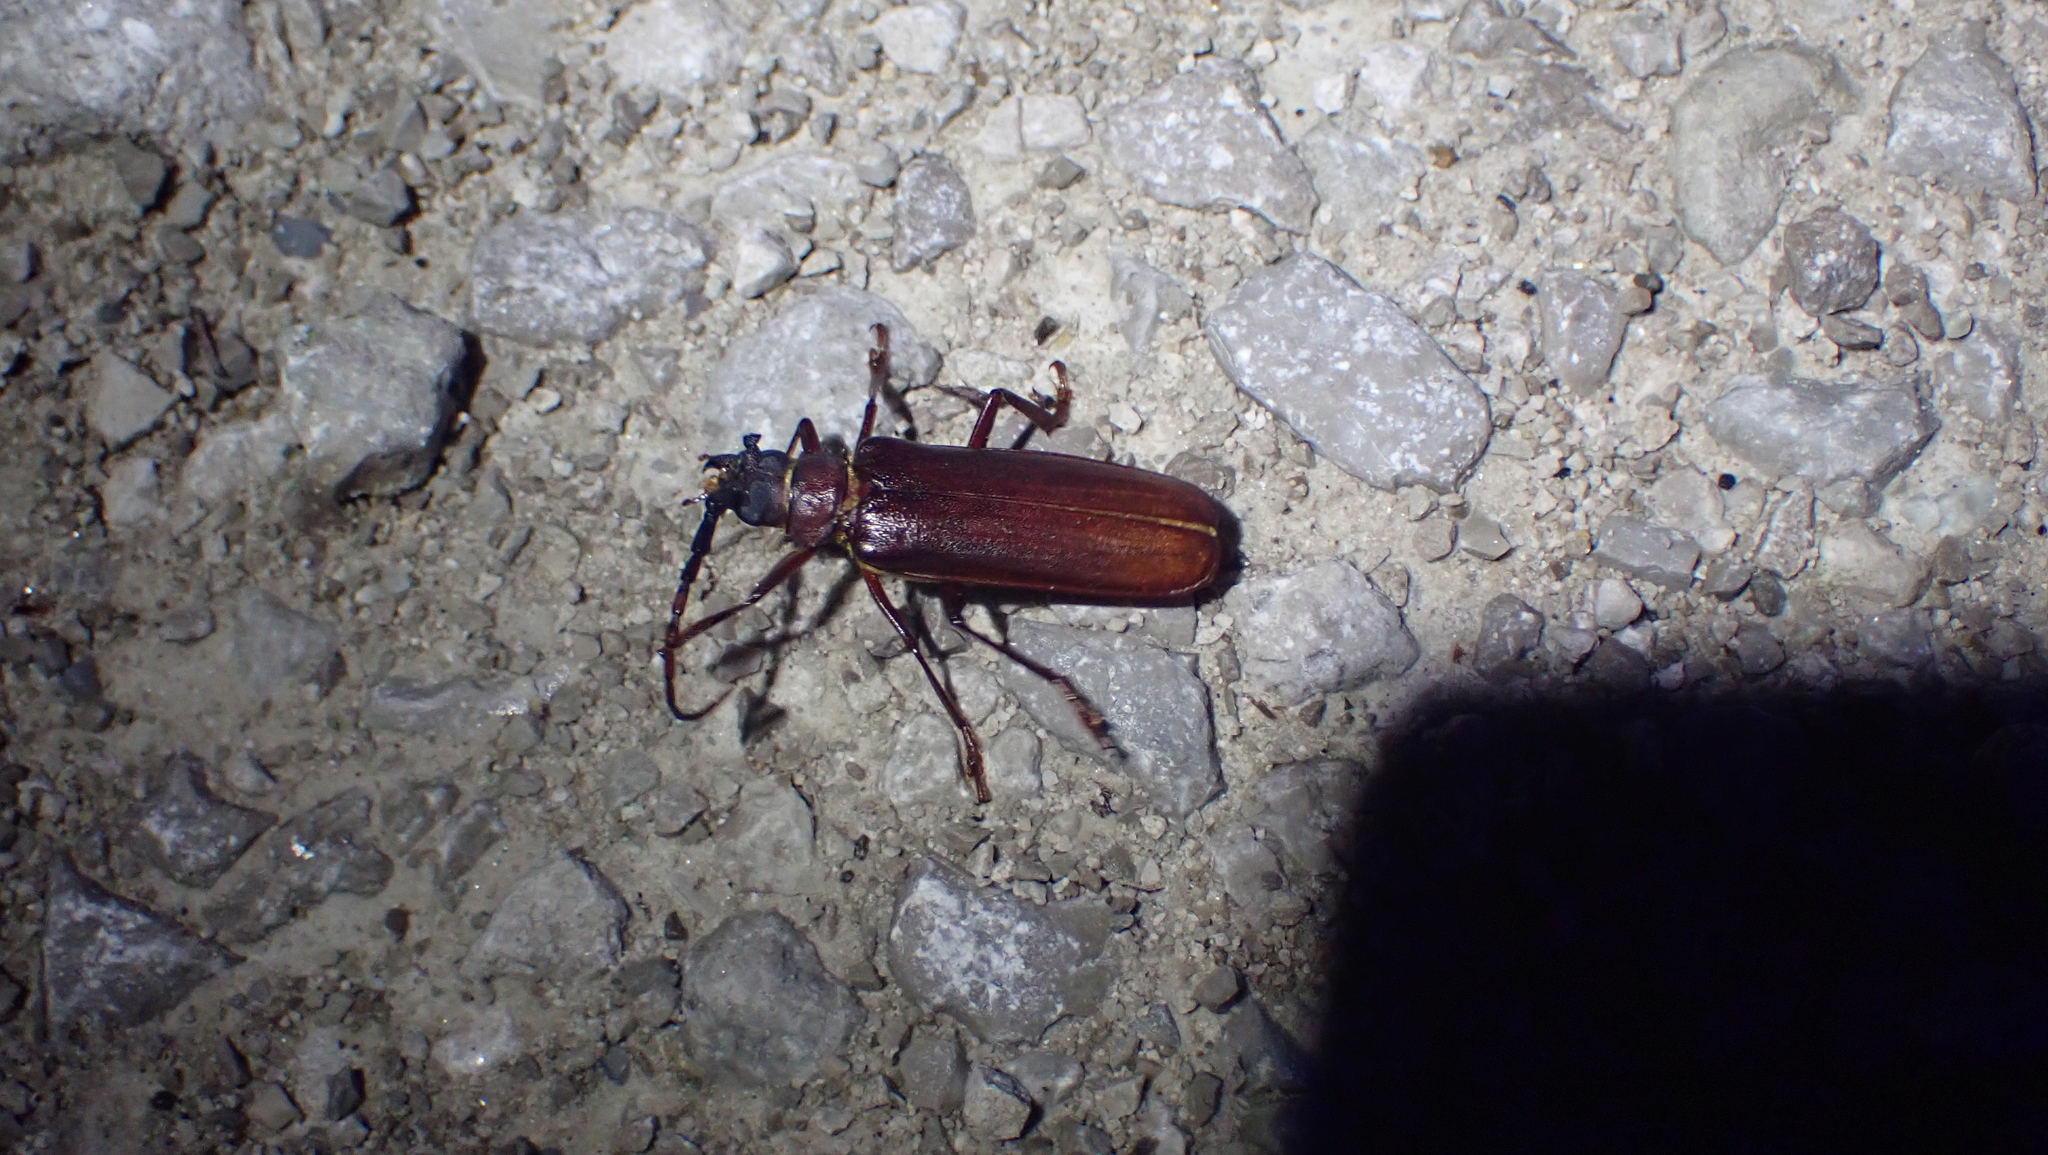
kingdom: Animalia
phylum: Arthropoda
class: Insecta
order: Coleoptera
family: Cerambycidae
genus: Orthosoma
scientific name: Orthosoma brunneum
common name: Brown prionid beetle
